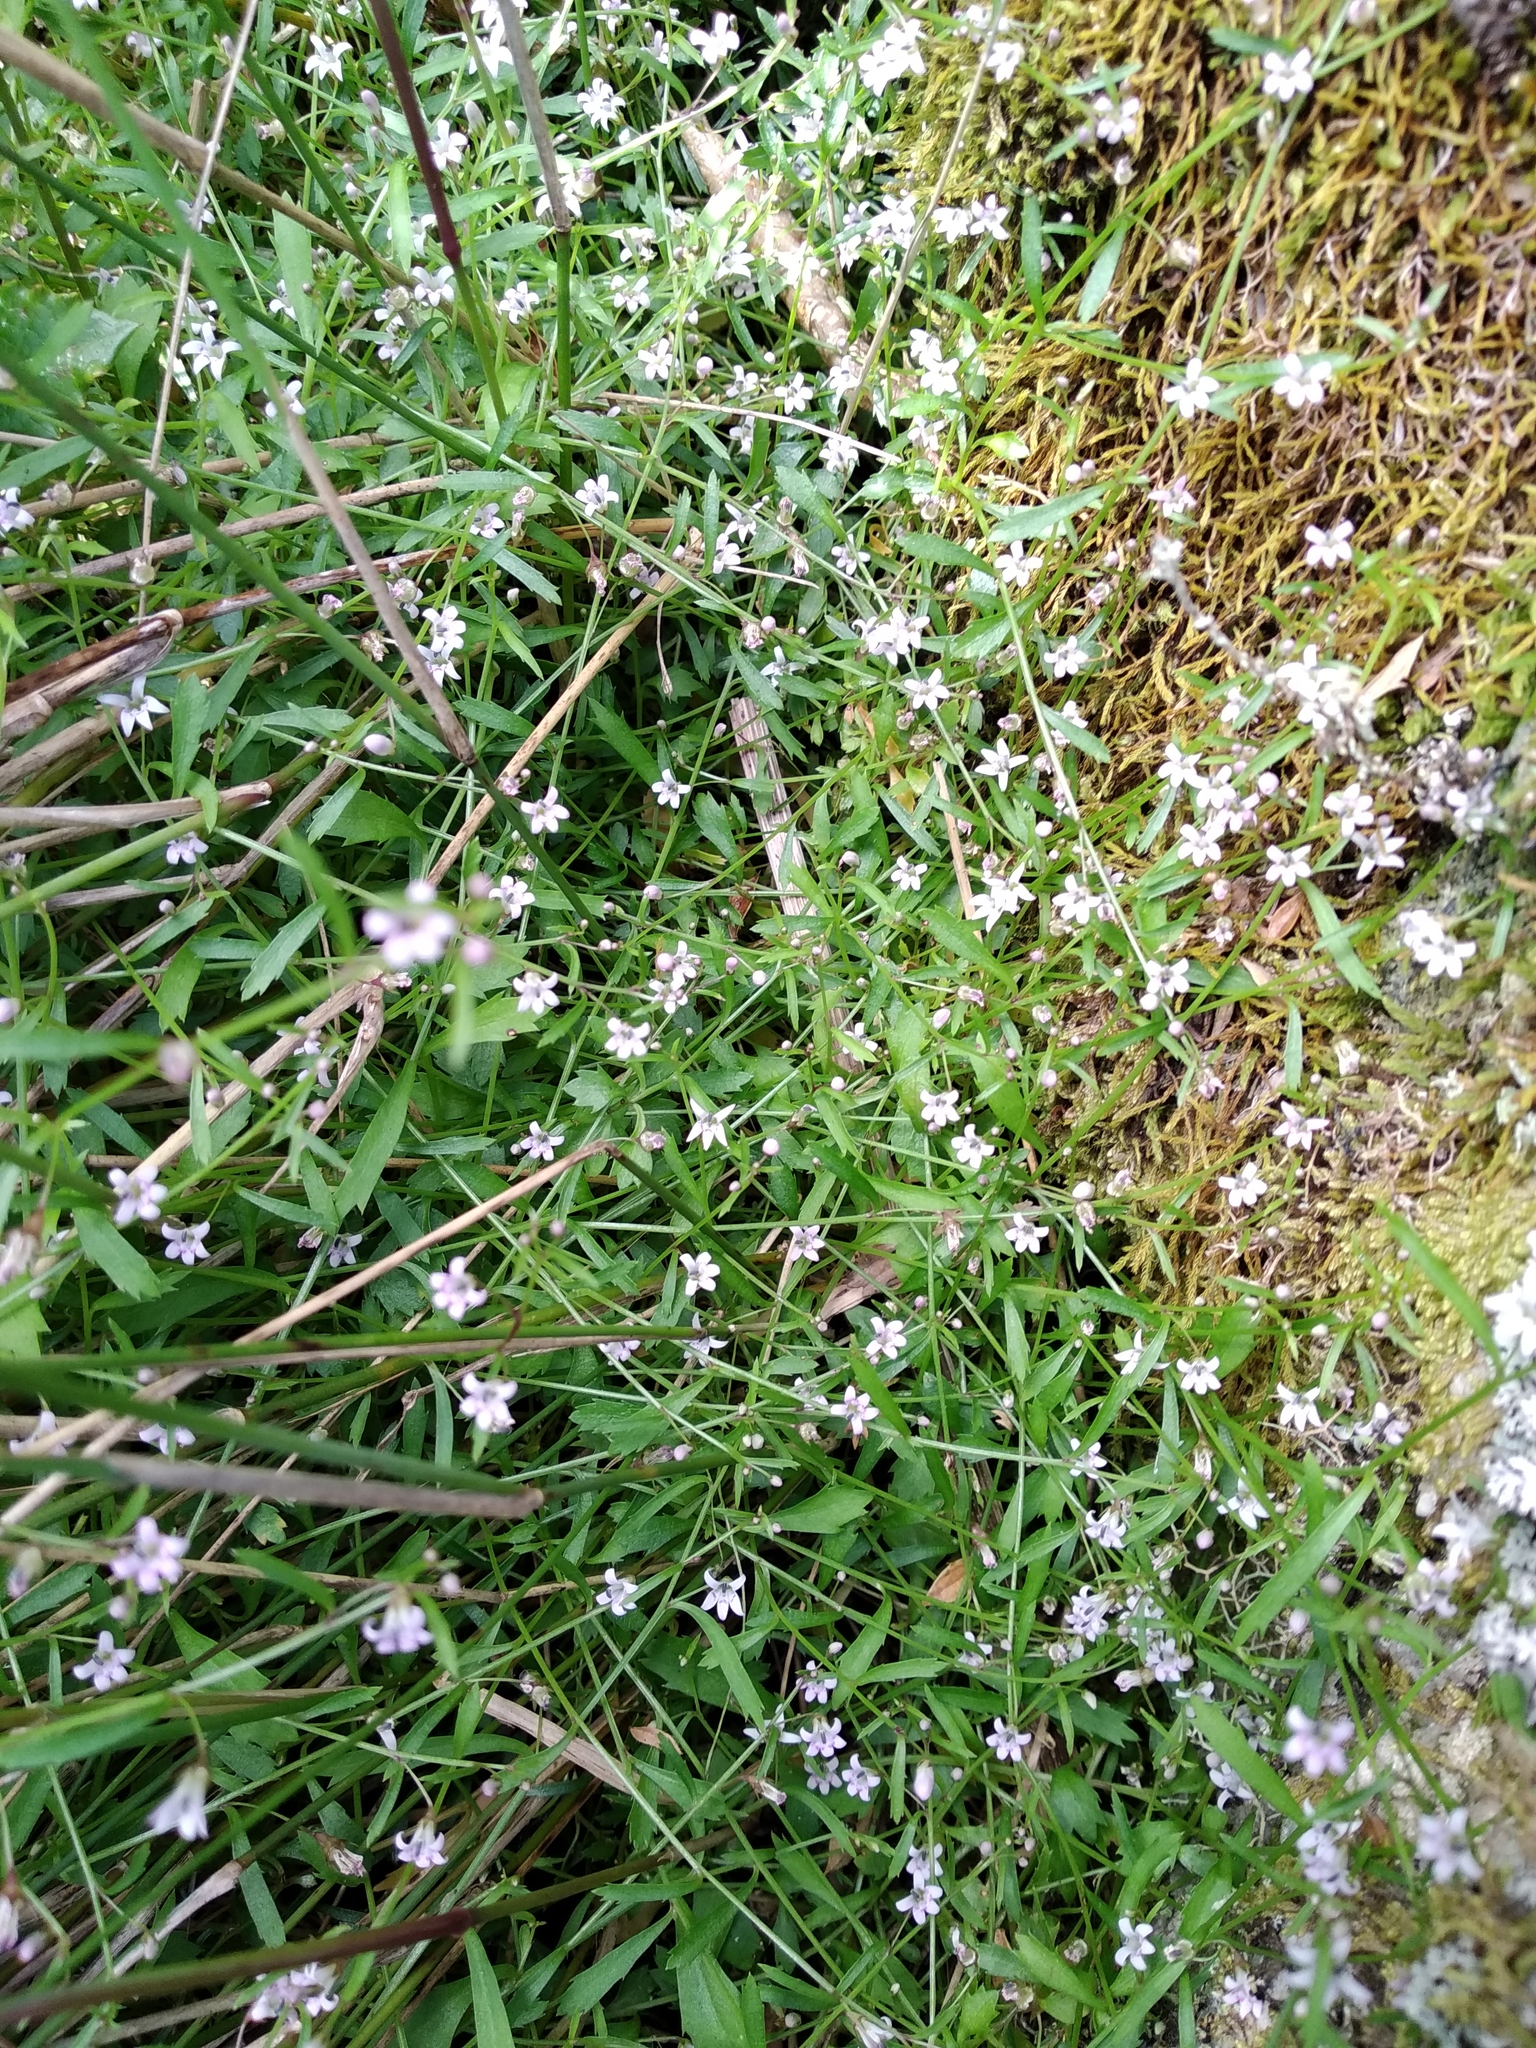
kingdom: Plantae
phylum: Tracheophyta
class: Magnoliopsida
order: Asterales
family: Campanulaceae
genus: Lobelia
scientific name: Lobelia eckloniana
